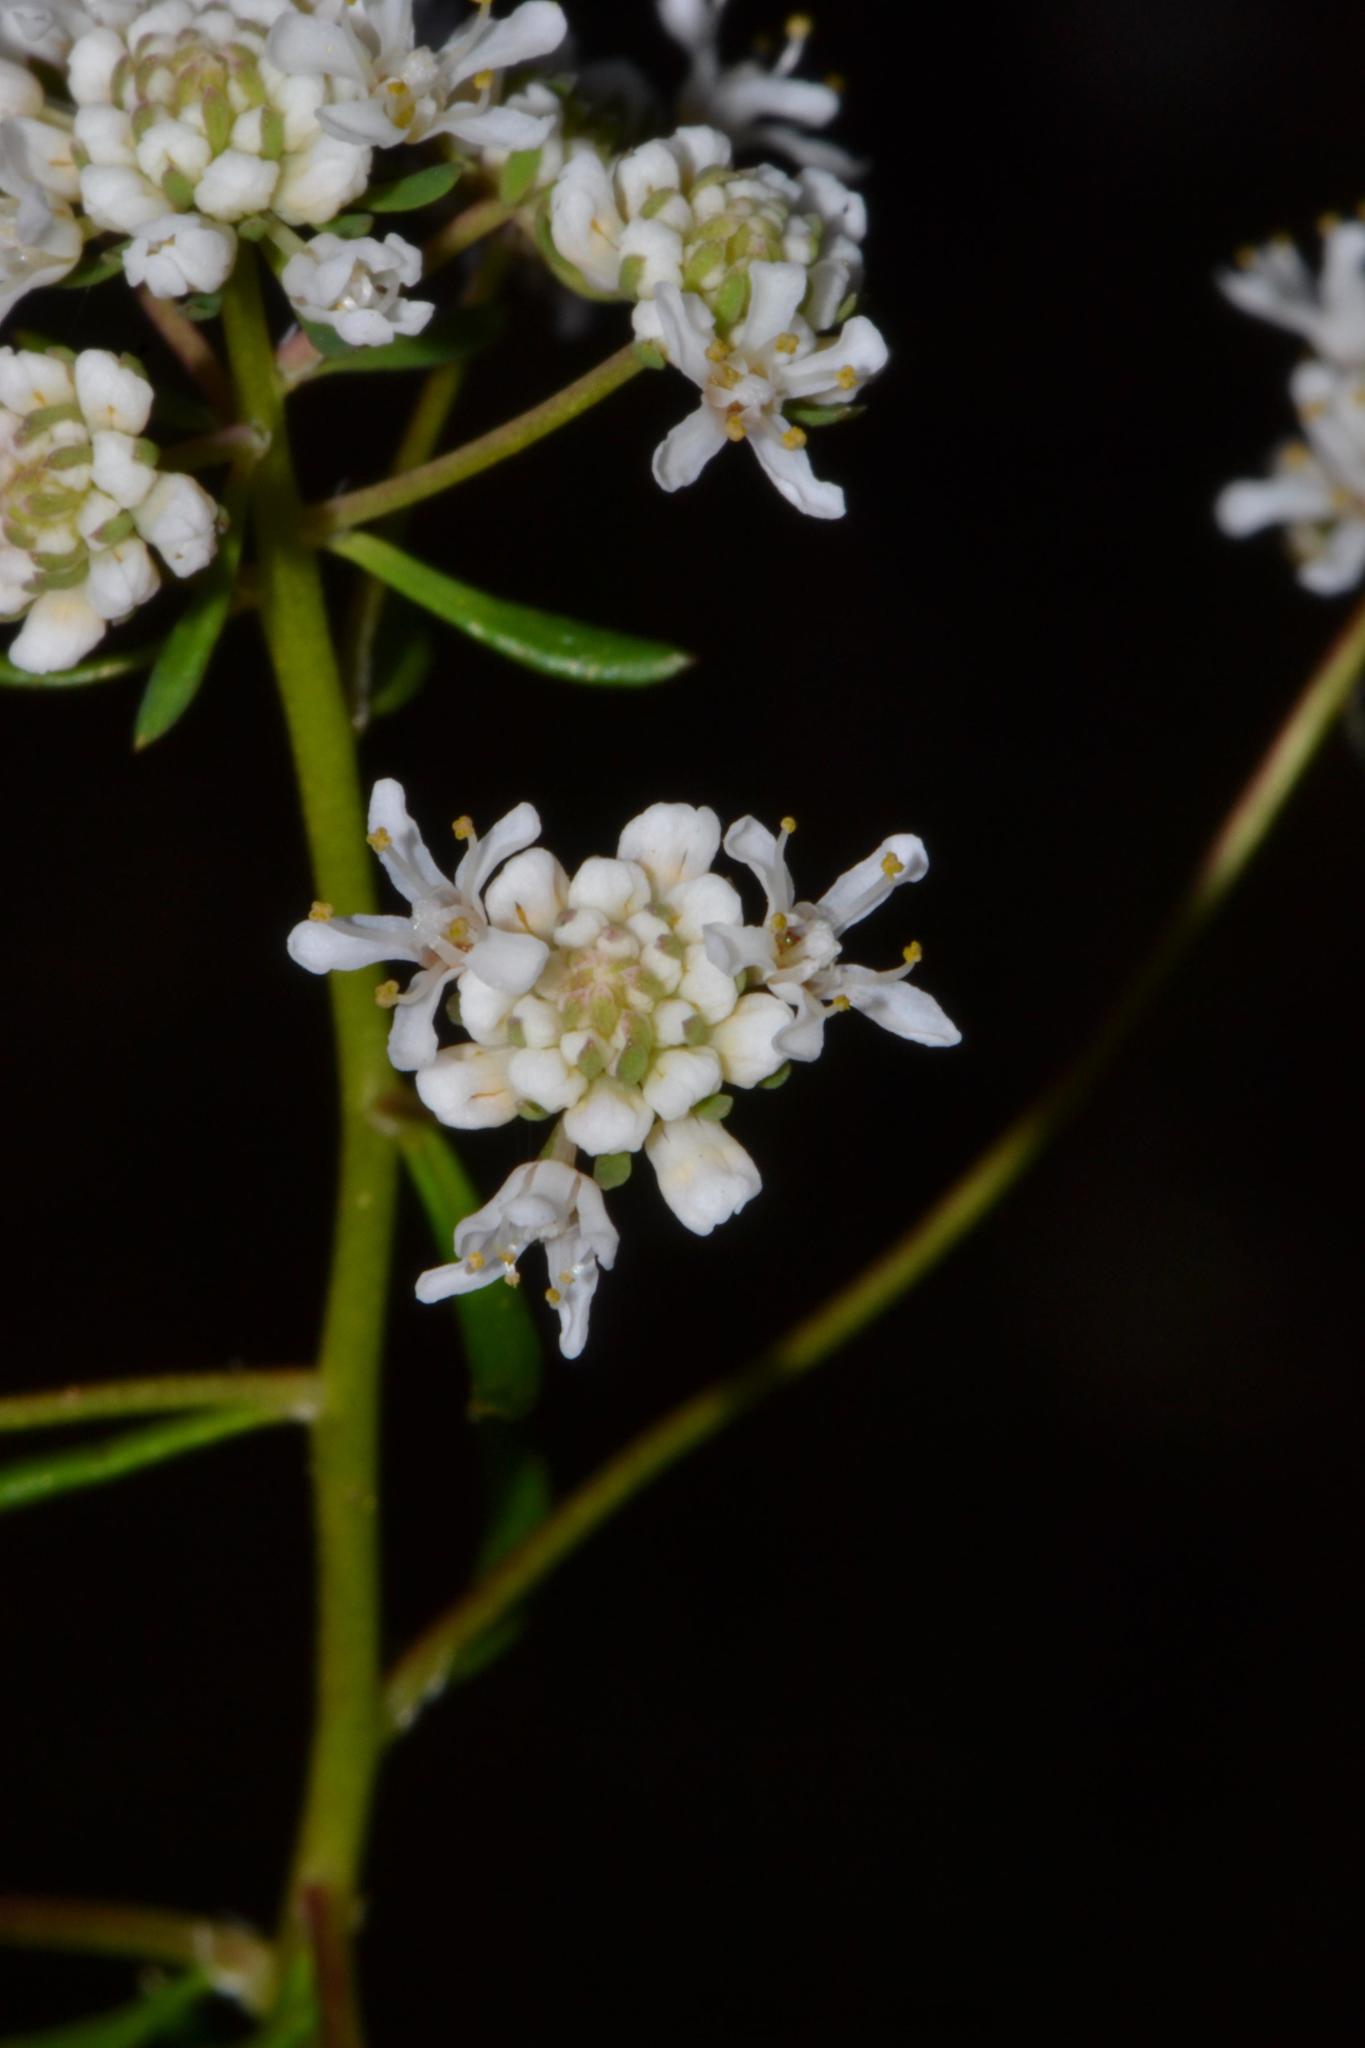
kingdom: Plantae
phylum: Tracheophyta
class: Magnoliopsida
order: Malpighiales
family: Phyllanthaceae
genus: Poranthera
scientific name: Poranthera huegelii
